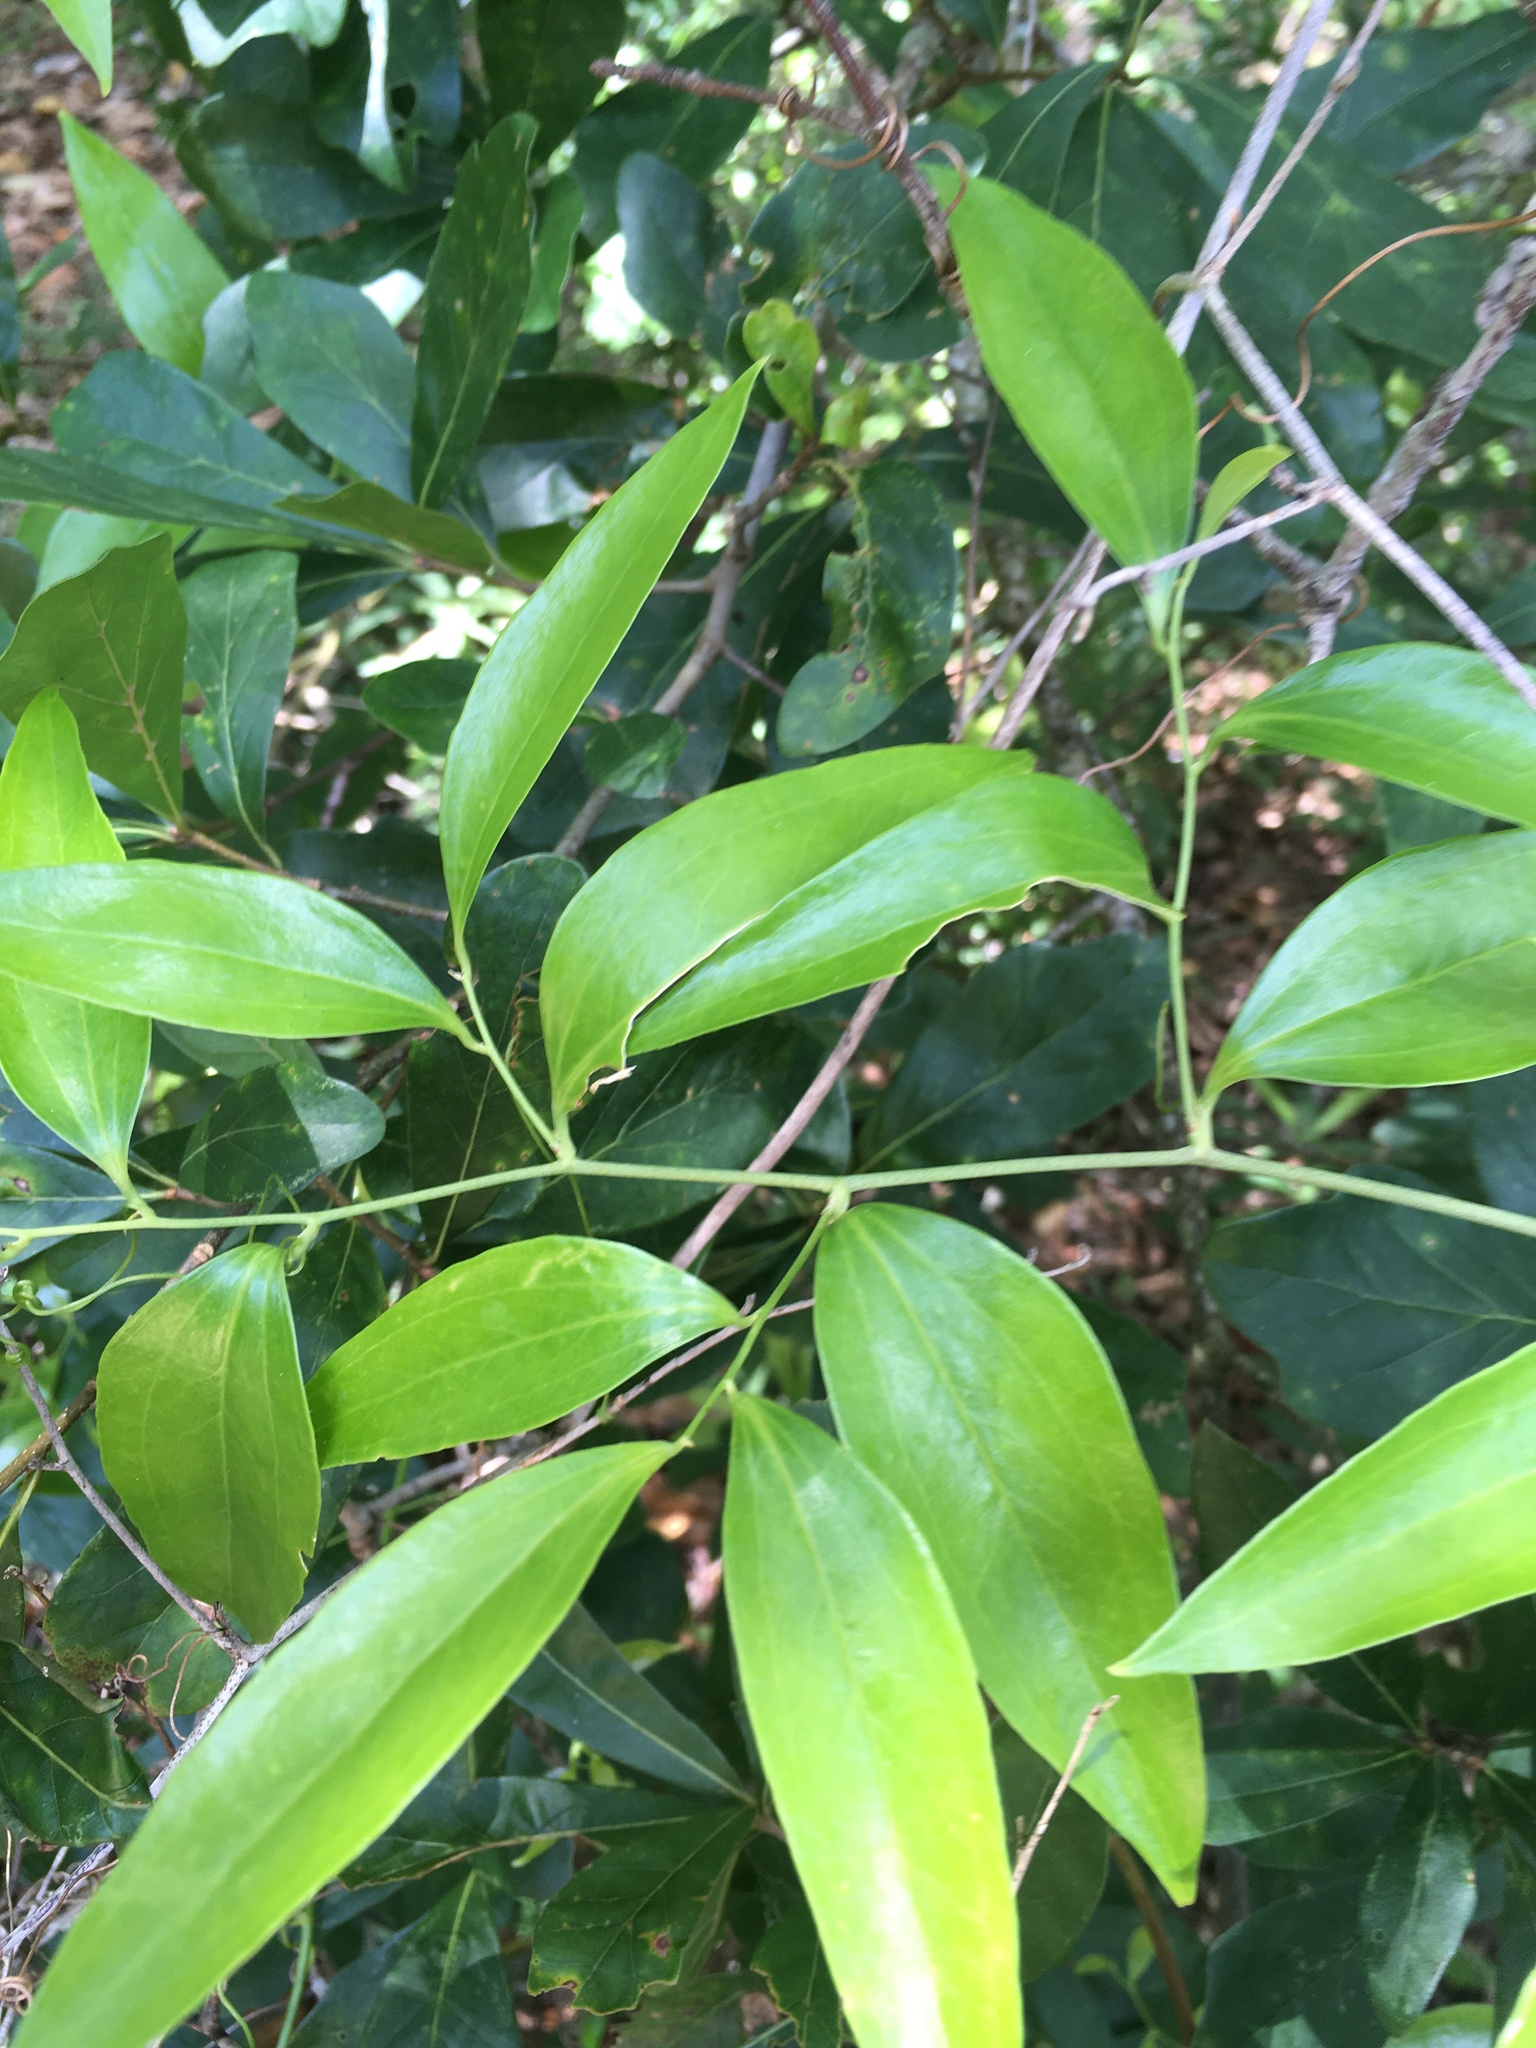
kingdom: Plantae
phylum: Tracheophyta
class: Liliopsida
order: Liliales
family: Smilacaceae
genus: Smilax
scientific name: Smilax maritima
